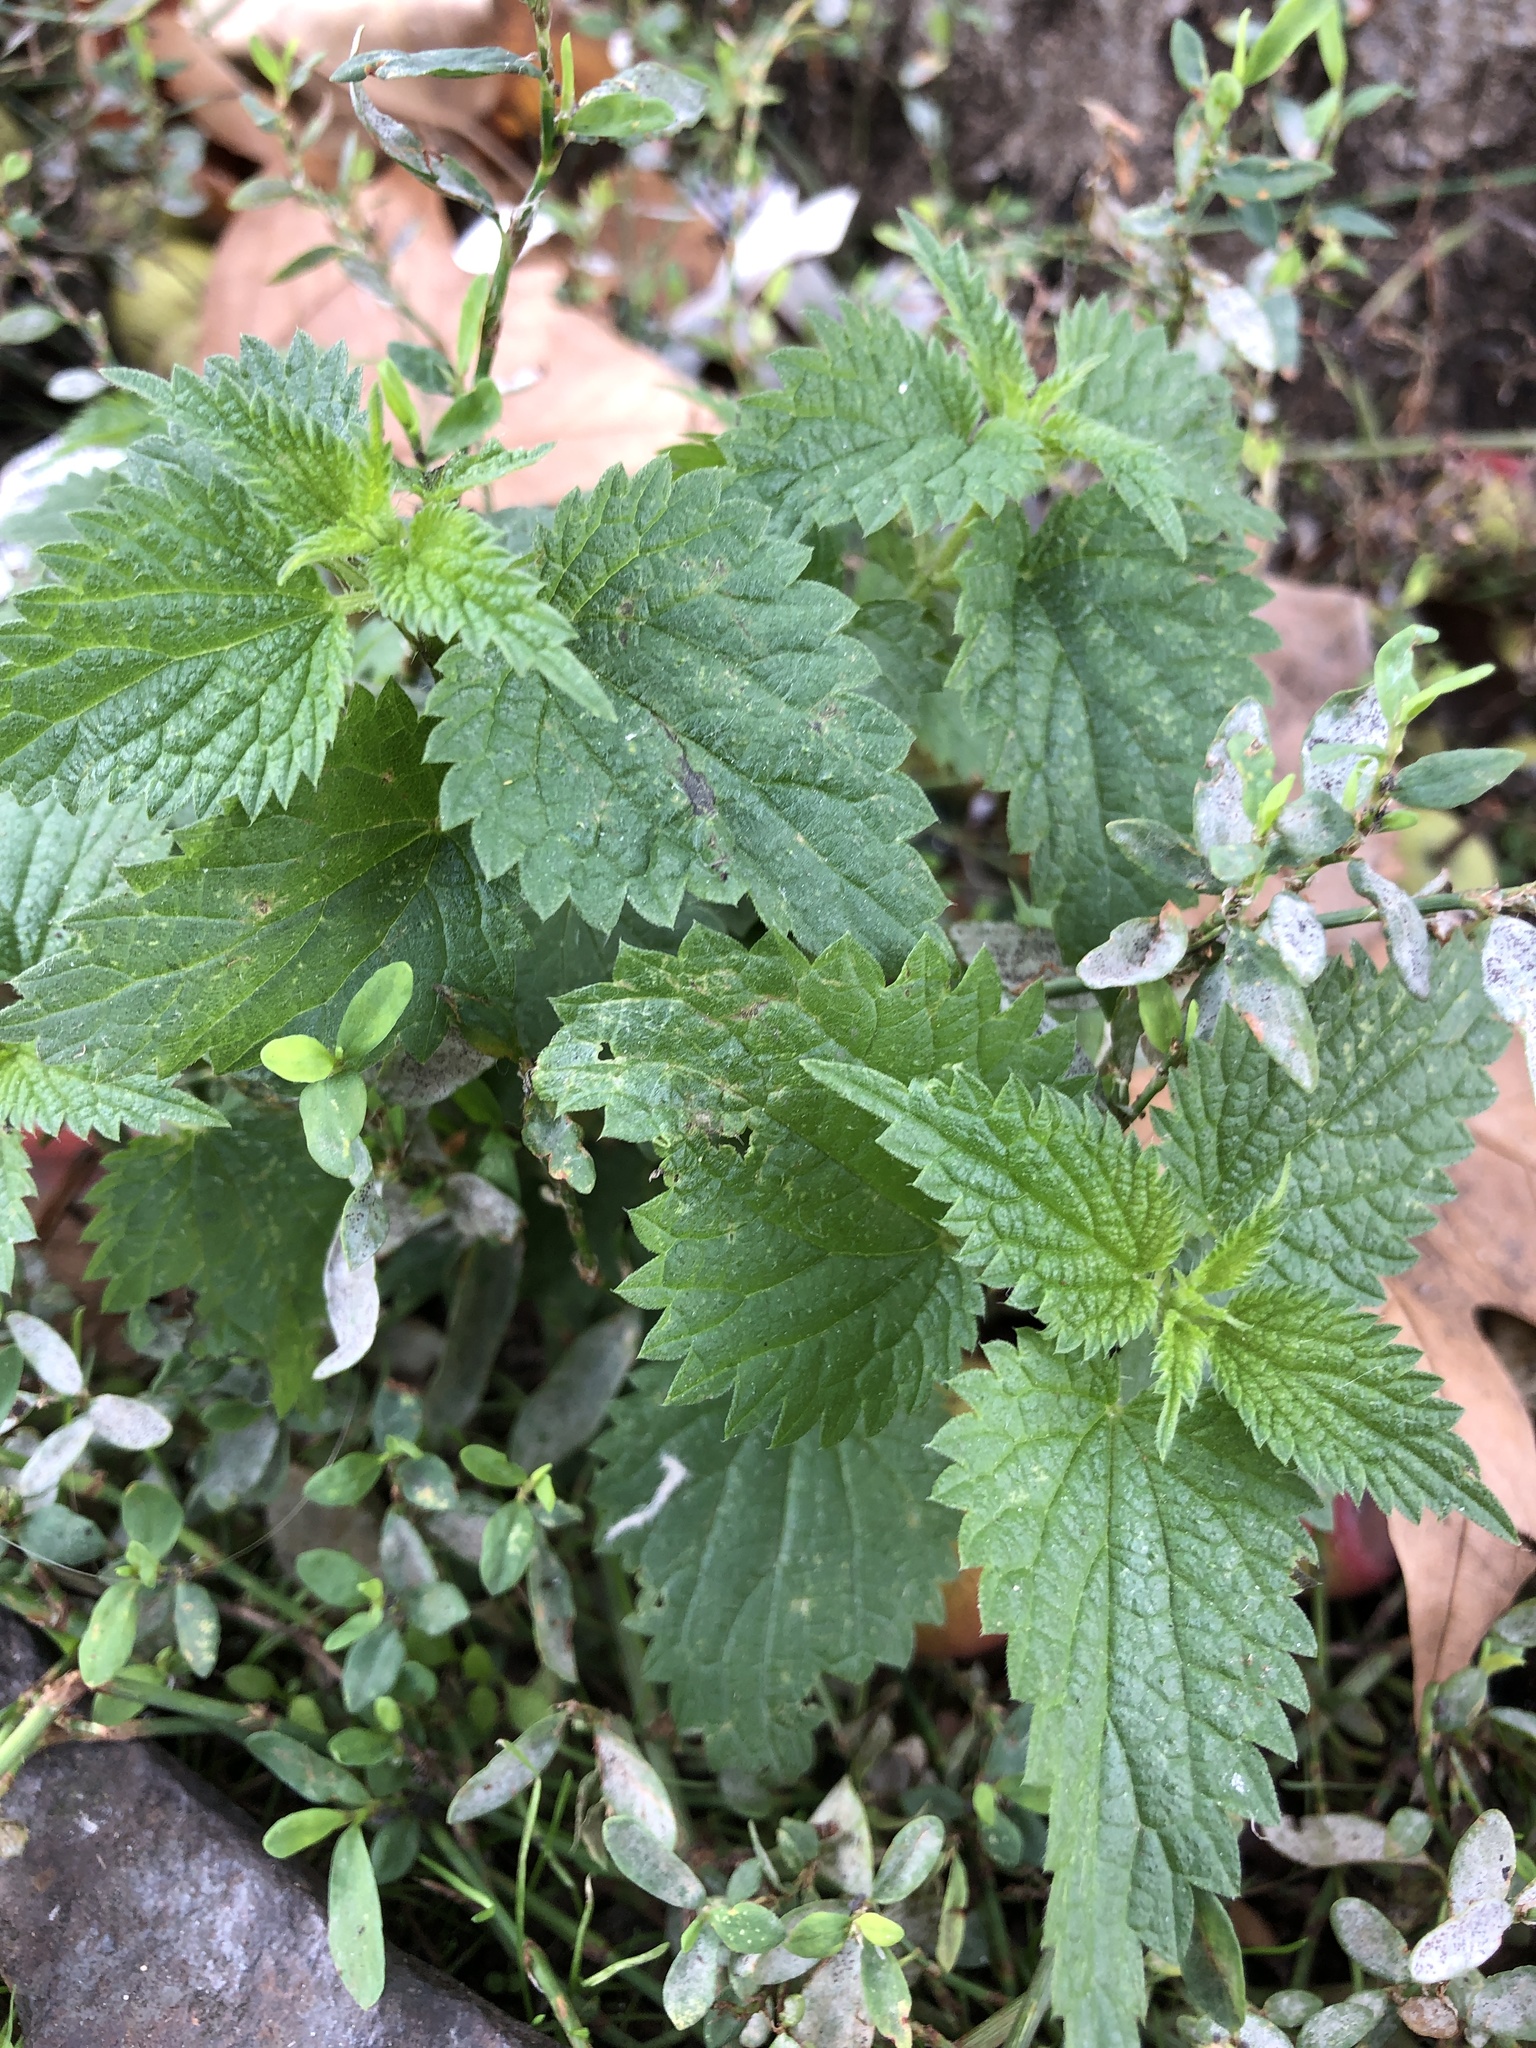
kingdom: Plantae
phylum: Tracheophyta
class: Magnoliopsida
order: Rosales
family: Urticaceae
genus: Urtica
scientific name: Urtica dioica
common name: Common nettle
